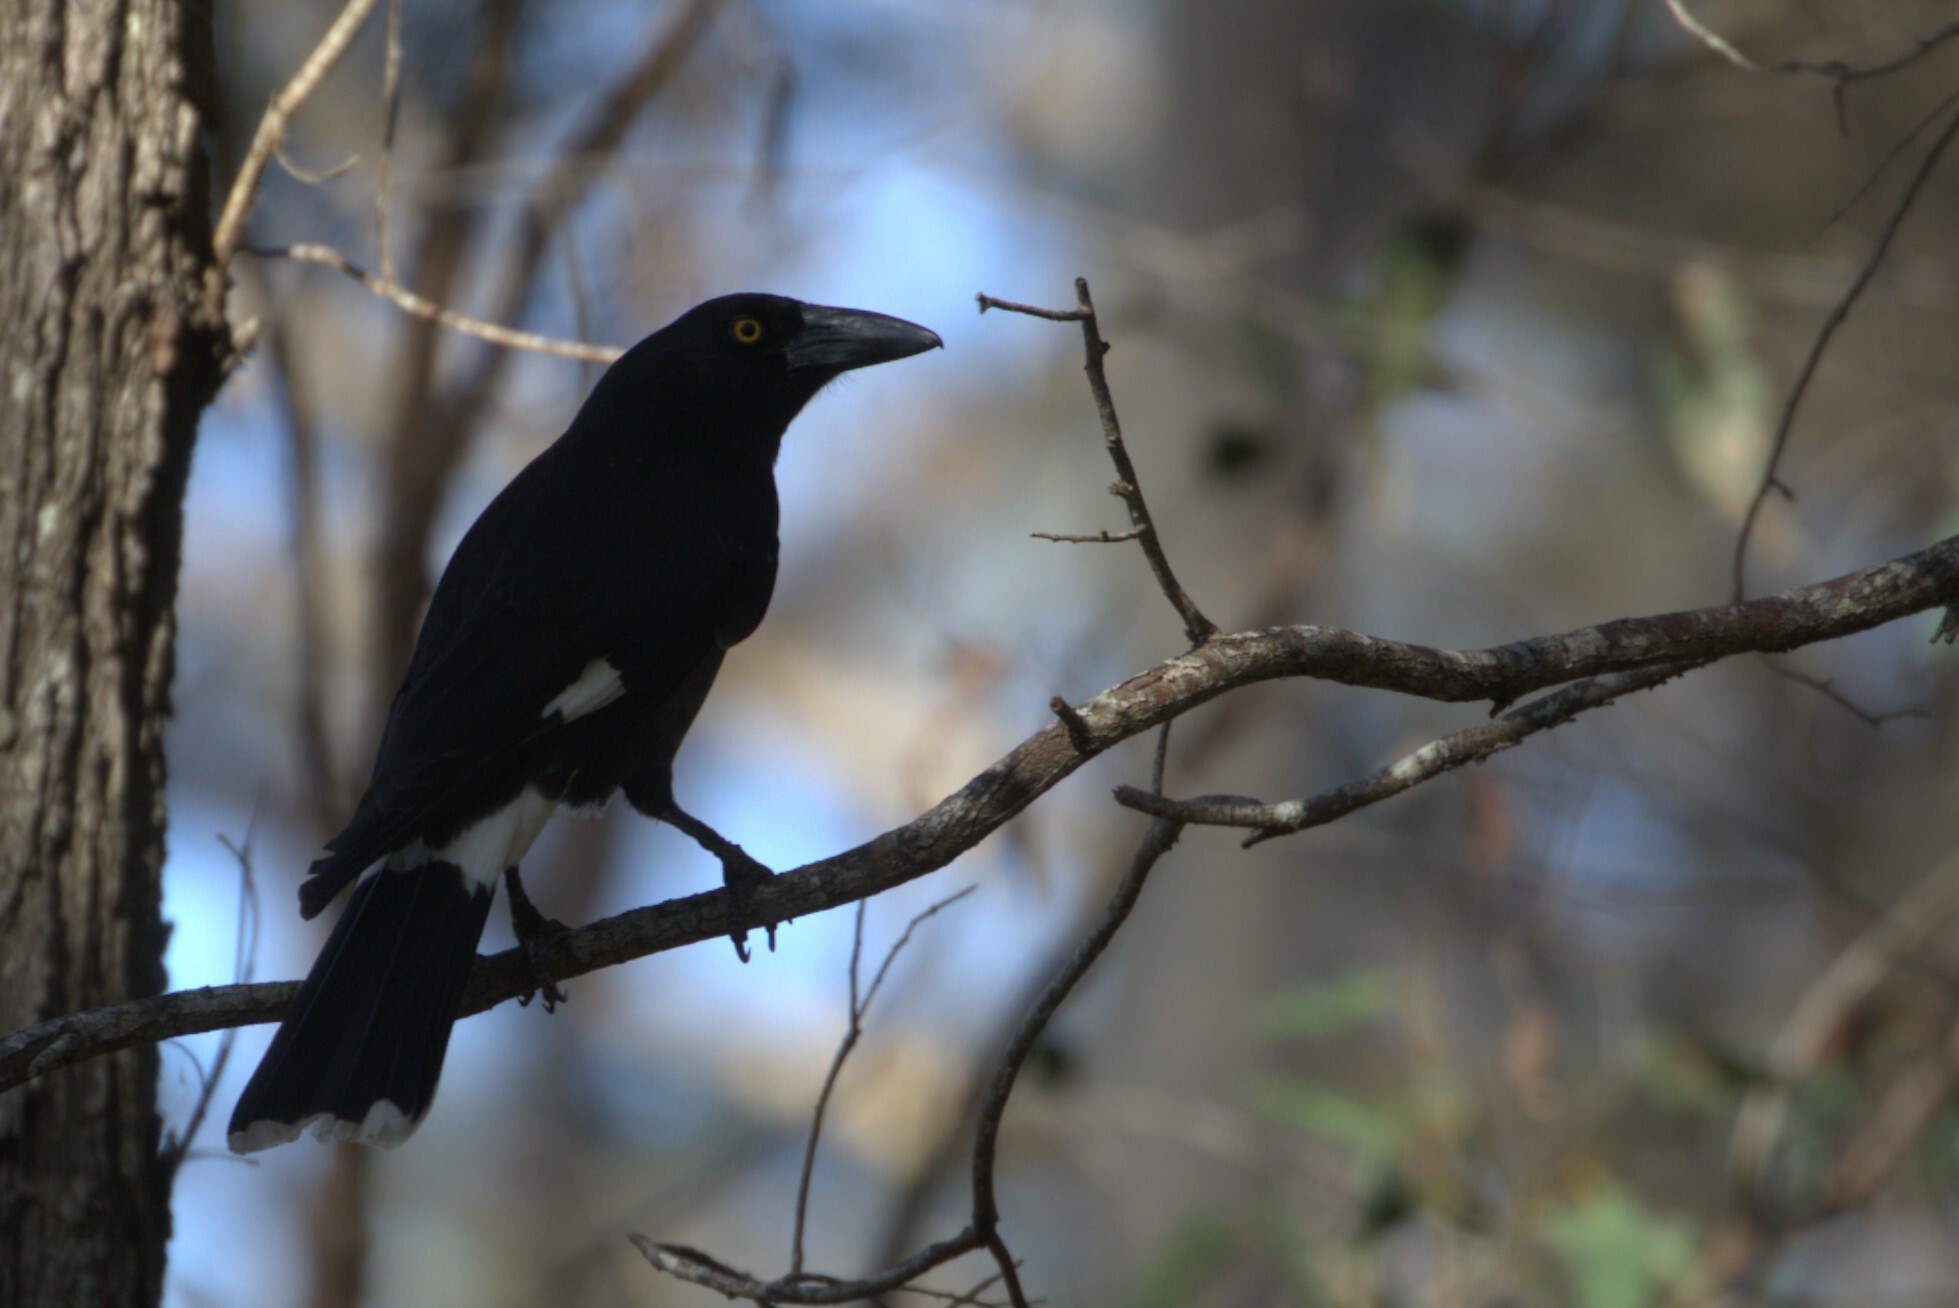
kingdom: Animalia
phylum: Chordata
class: Aves
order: Passeriformes
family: Cracticidae
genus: Strepera
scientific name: Strepera graculina
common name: Pied currawong
